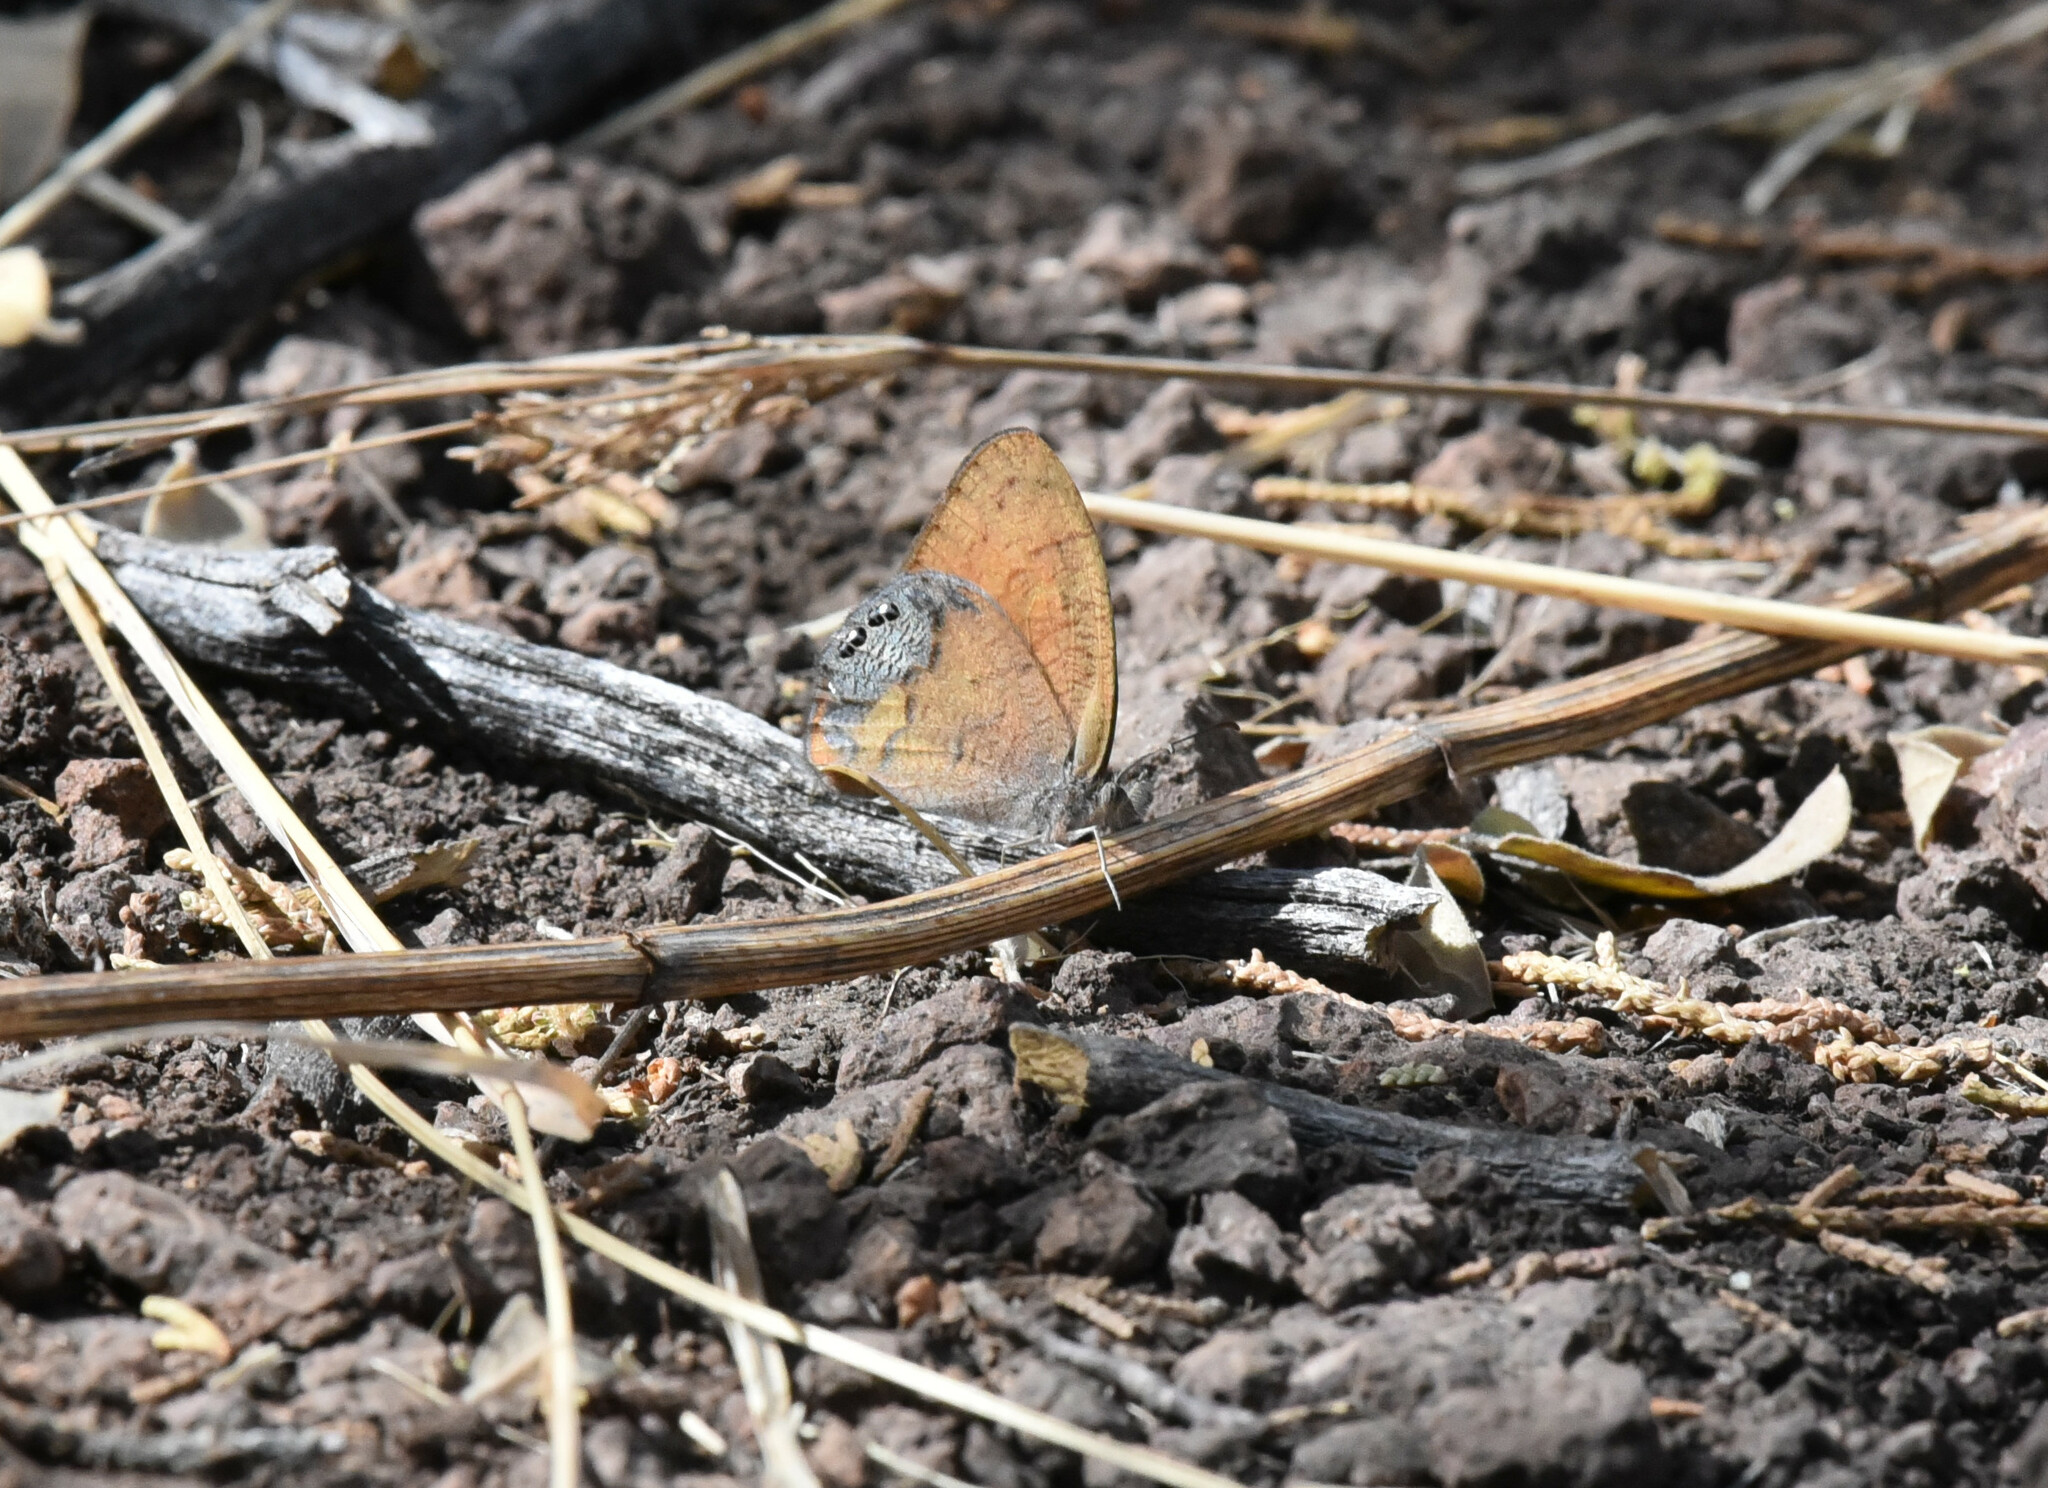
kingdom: Animalia
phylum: Arthropoda
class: Insecta
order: Lepidoptera
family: Nymphalidae
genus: Euptychia
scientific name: Euptychia Cyllopsis pertepida
